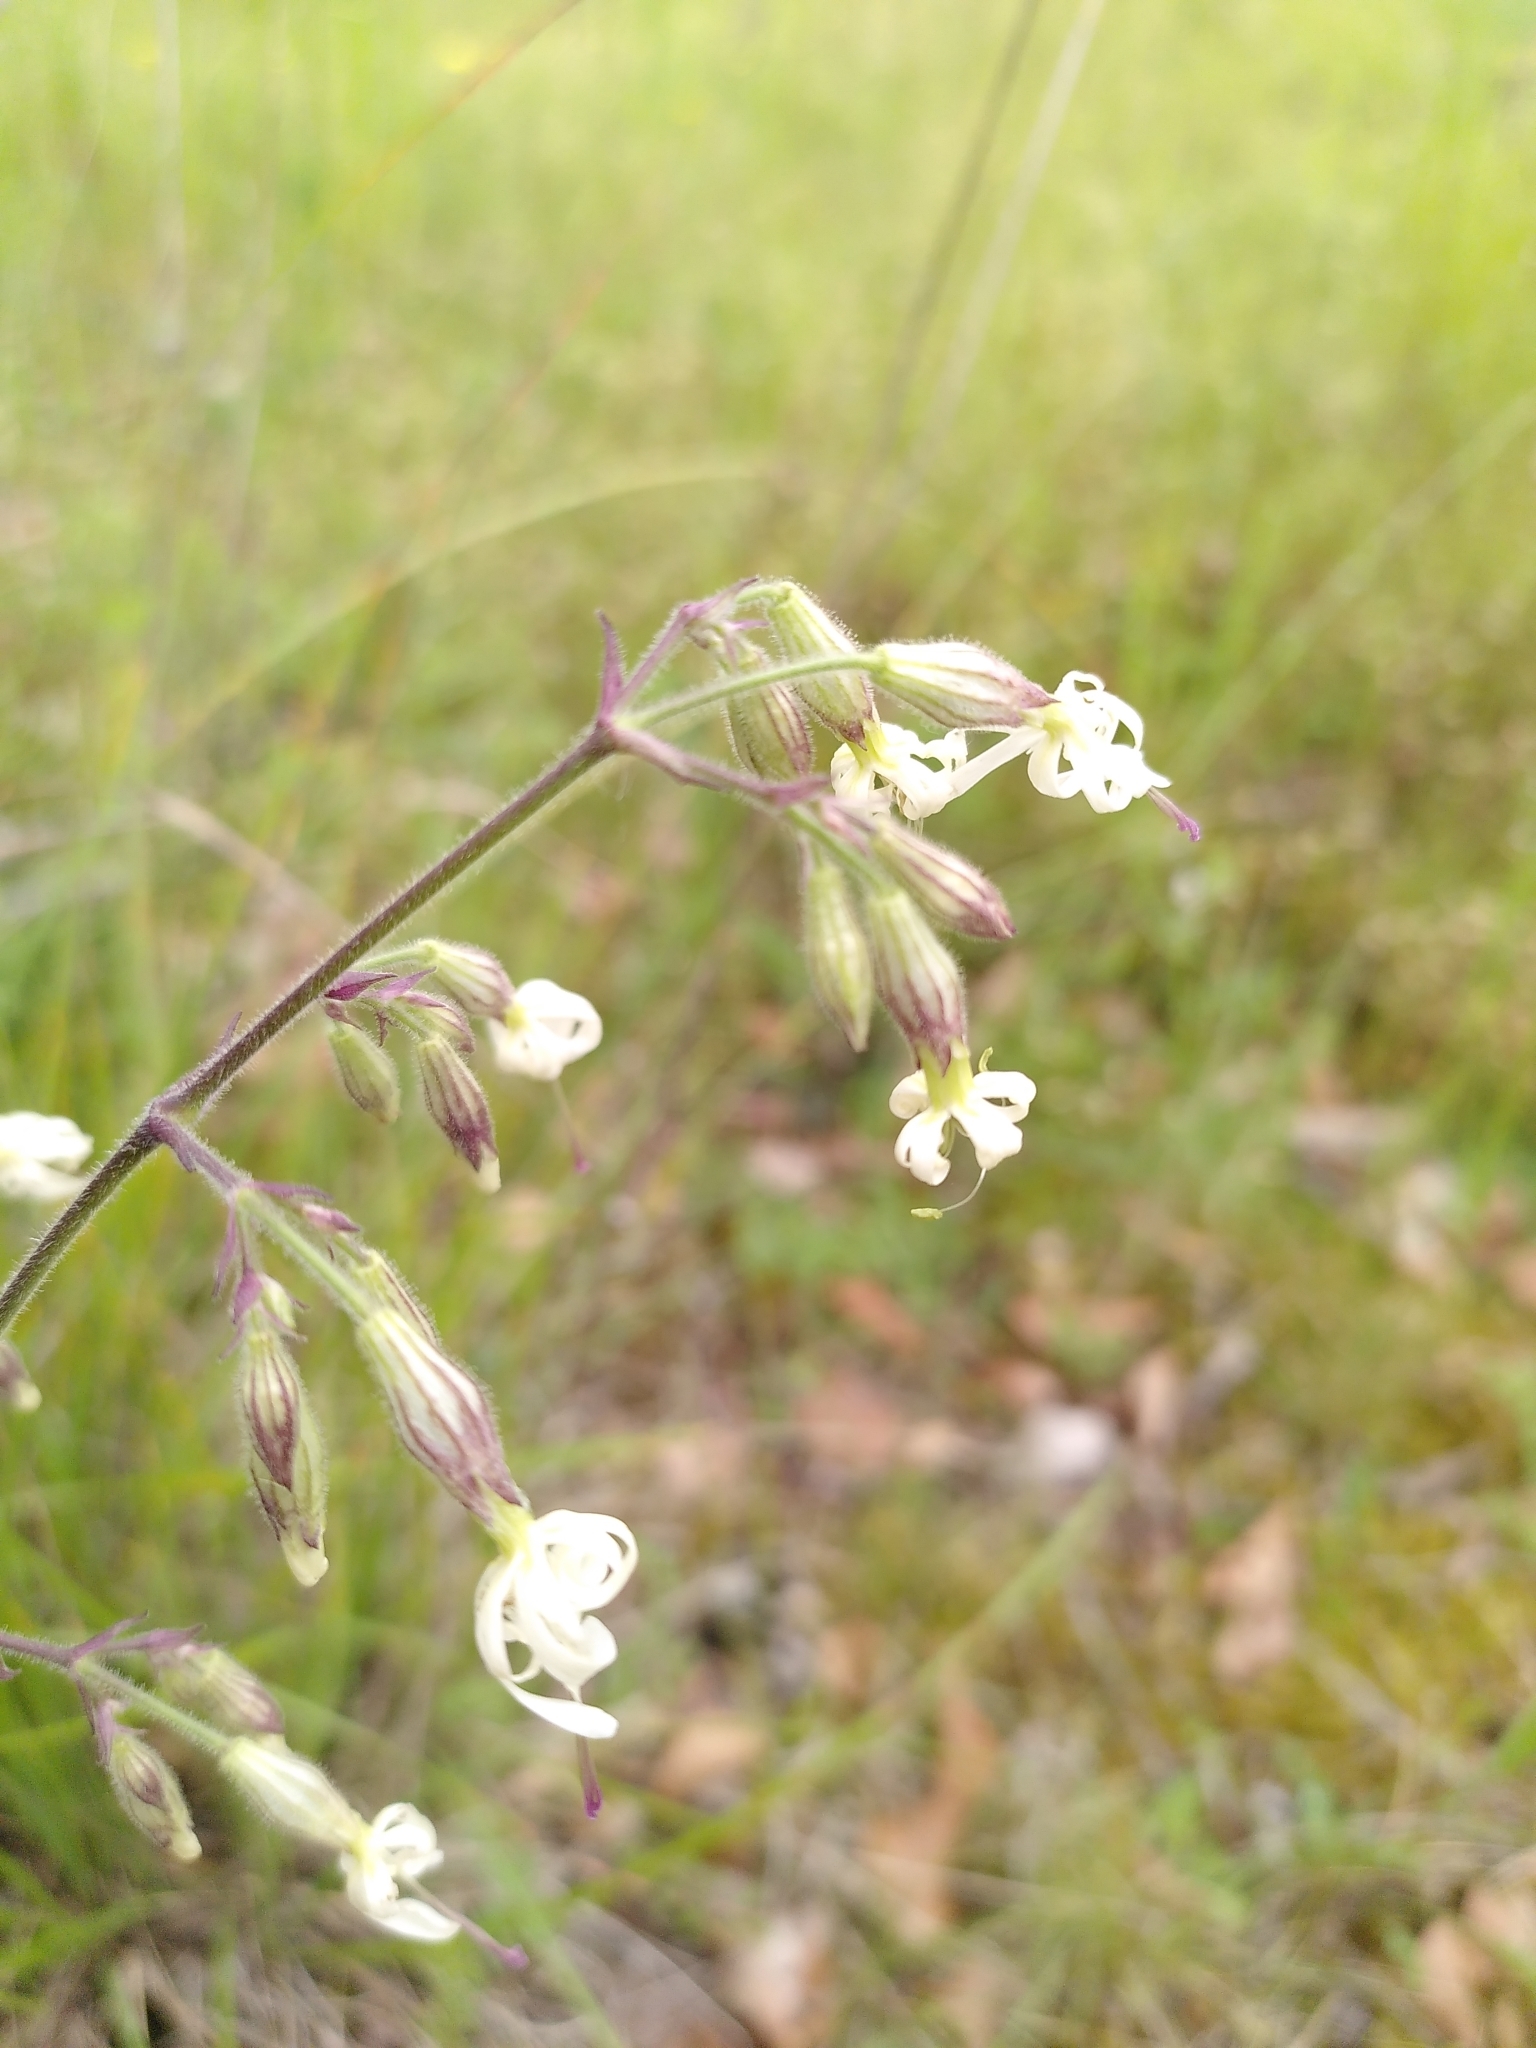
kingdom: Plantae
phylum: Tracheophyta
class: Magnoliopsida
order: Caryophyllales
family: Caryophyllaceae
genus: Silene
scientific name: Silene nutans
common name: Nottingham catchfly
